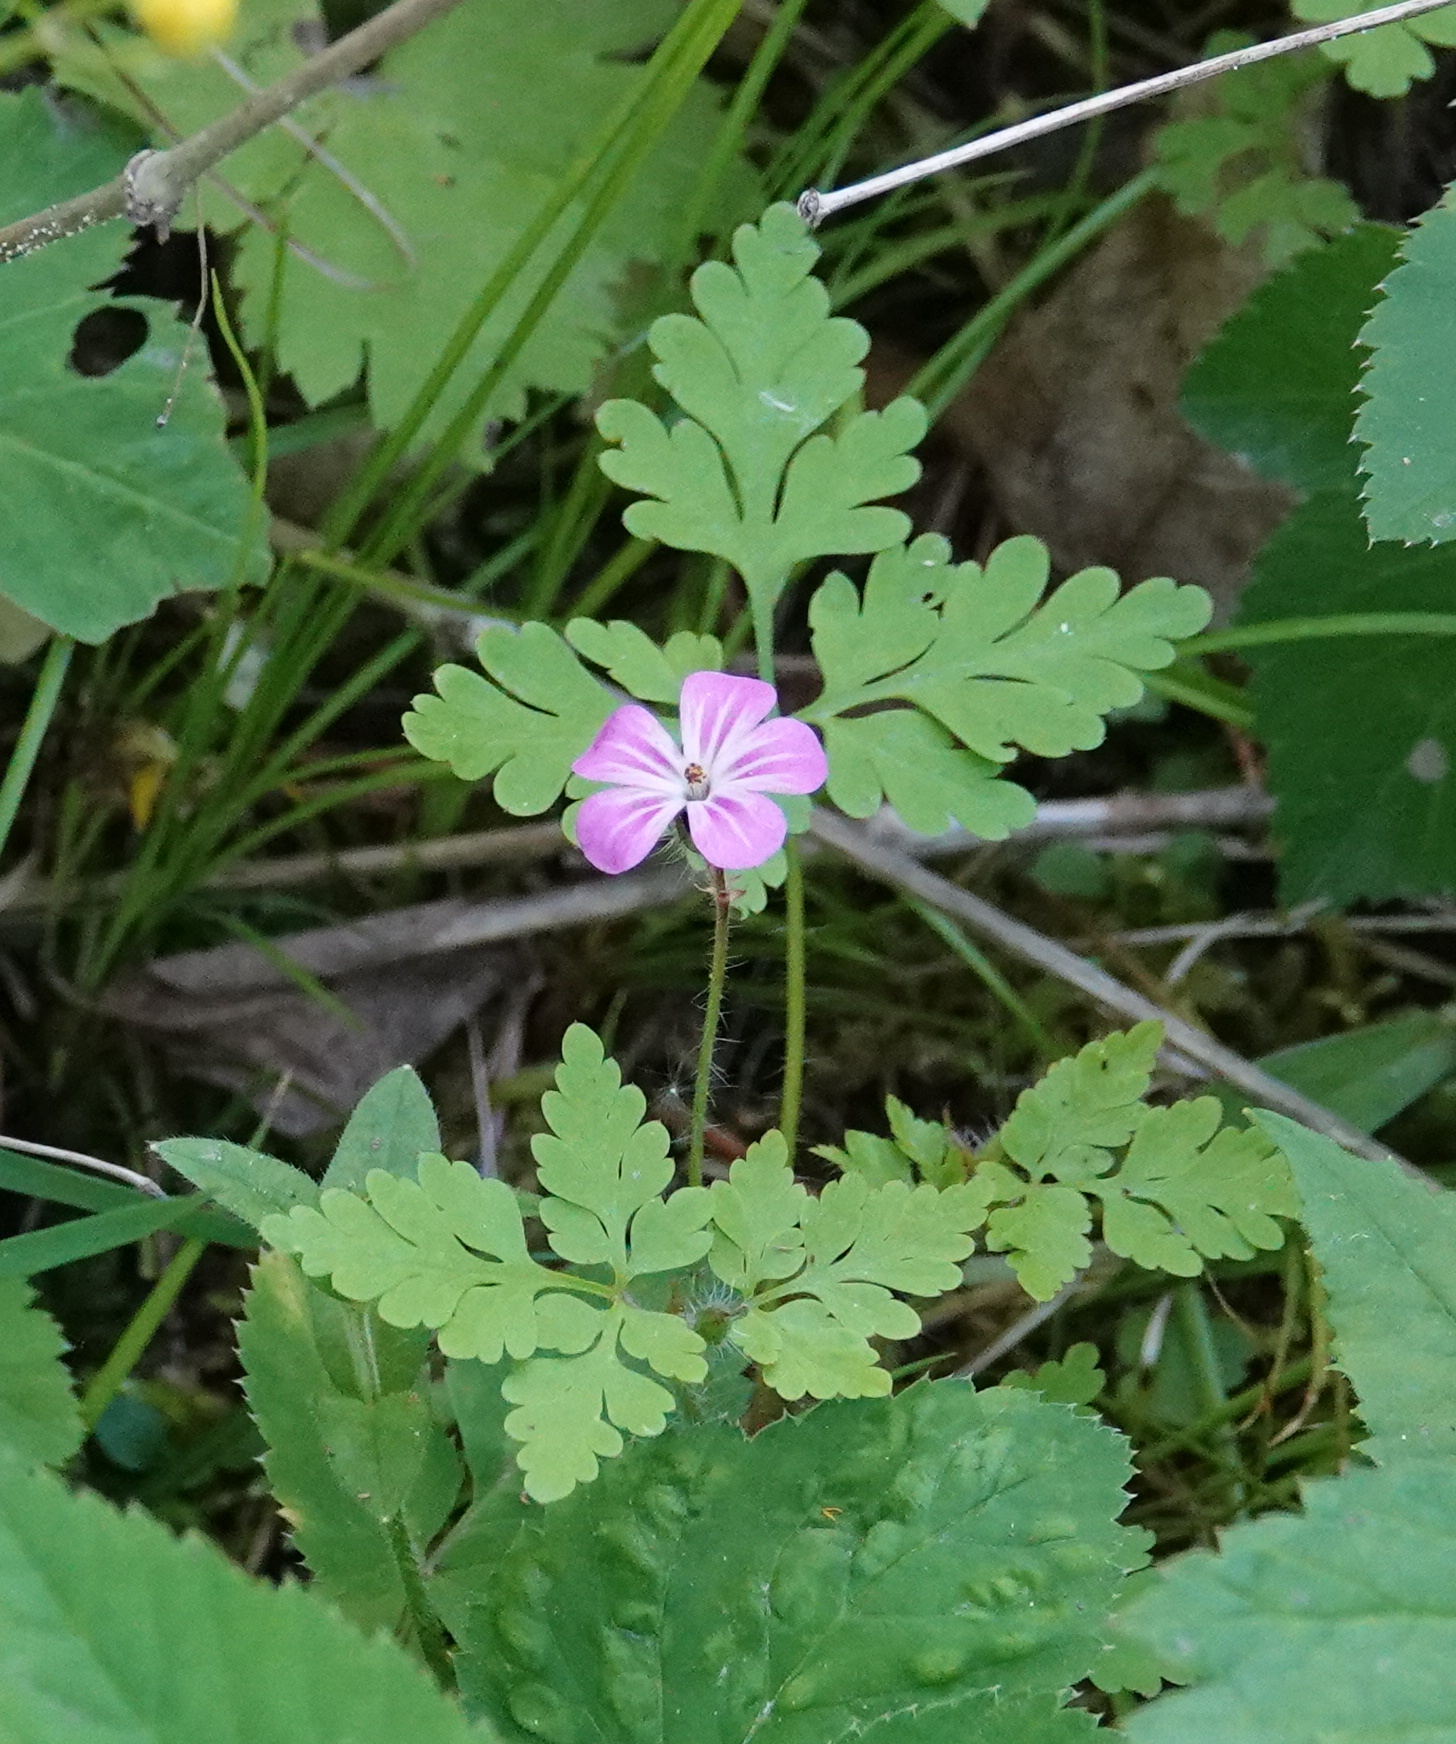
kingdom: Plantae
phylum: Tracheophyta
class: Magnoliopsida
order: Geraniales
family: Geraniaceae
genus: Geranium
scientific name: Geranium robertianum
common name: Herb-robert
